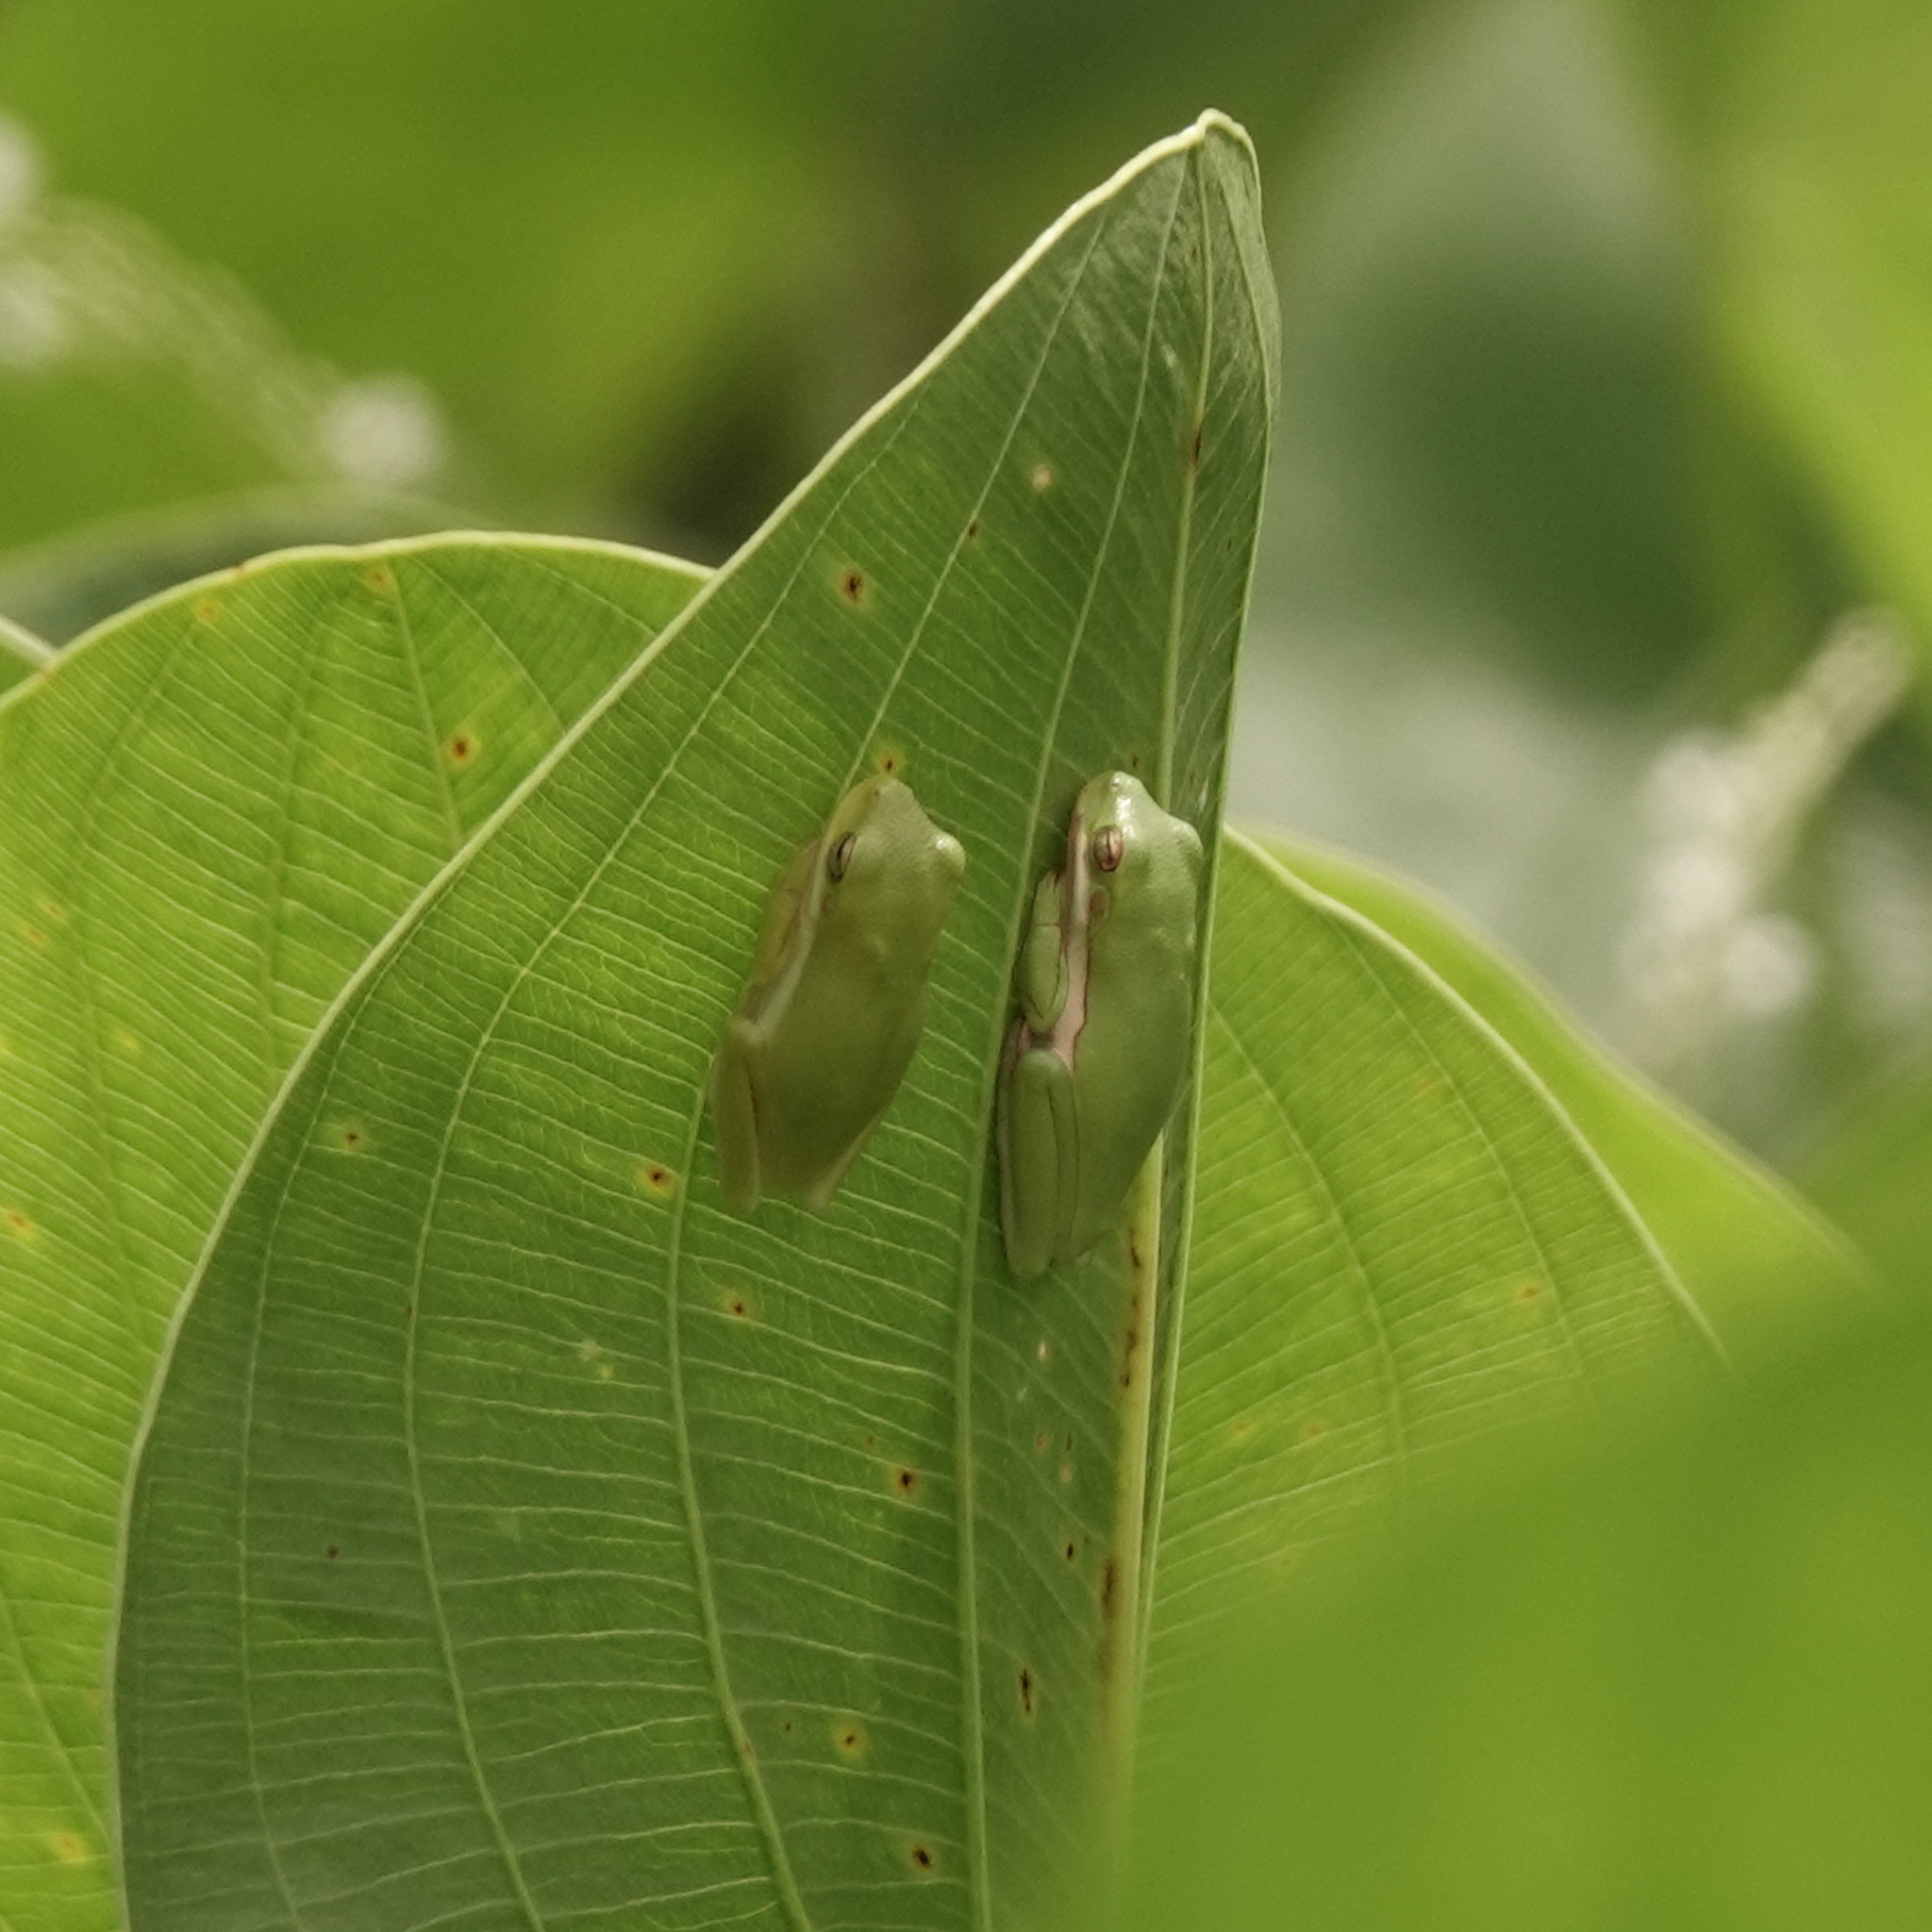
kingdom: Animalia
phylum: Chordata
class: Amphibia
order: Anura
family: Hylidae
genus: Dryophytes
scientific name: Dryophytes cinereus
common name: Green treefrog
